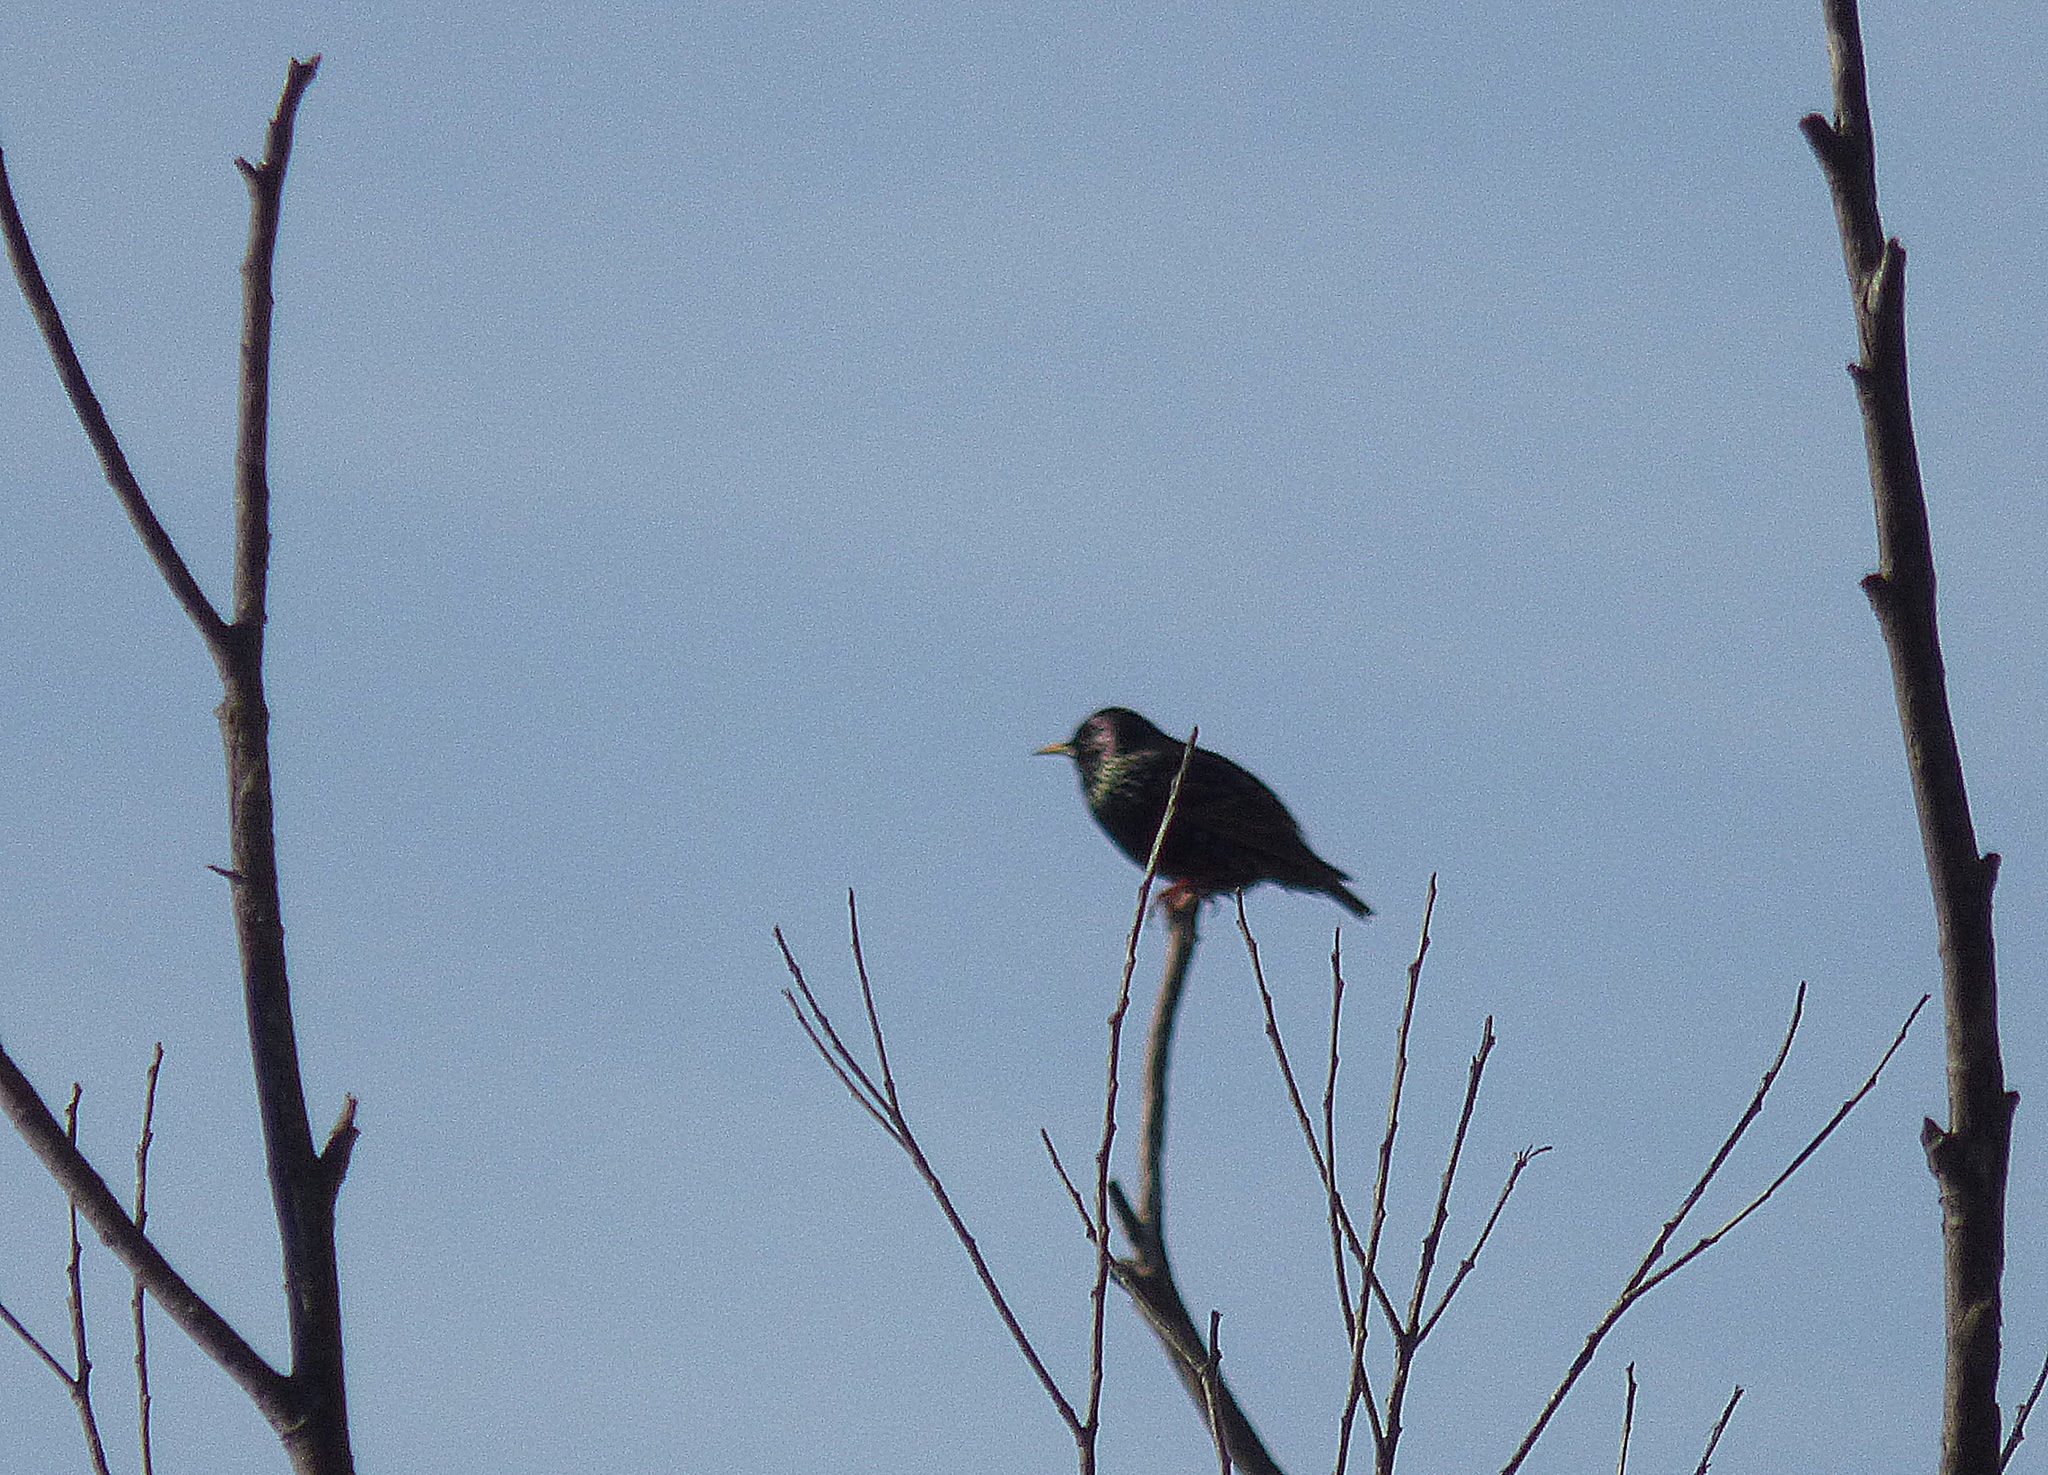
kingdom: Animalia
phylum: Chordata
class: Aves
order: Passeriformes
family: Sturnidae
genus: Sturnus
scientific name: Sturnus vulgaris
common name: Common starling
